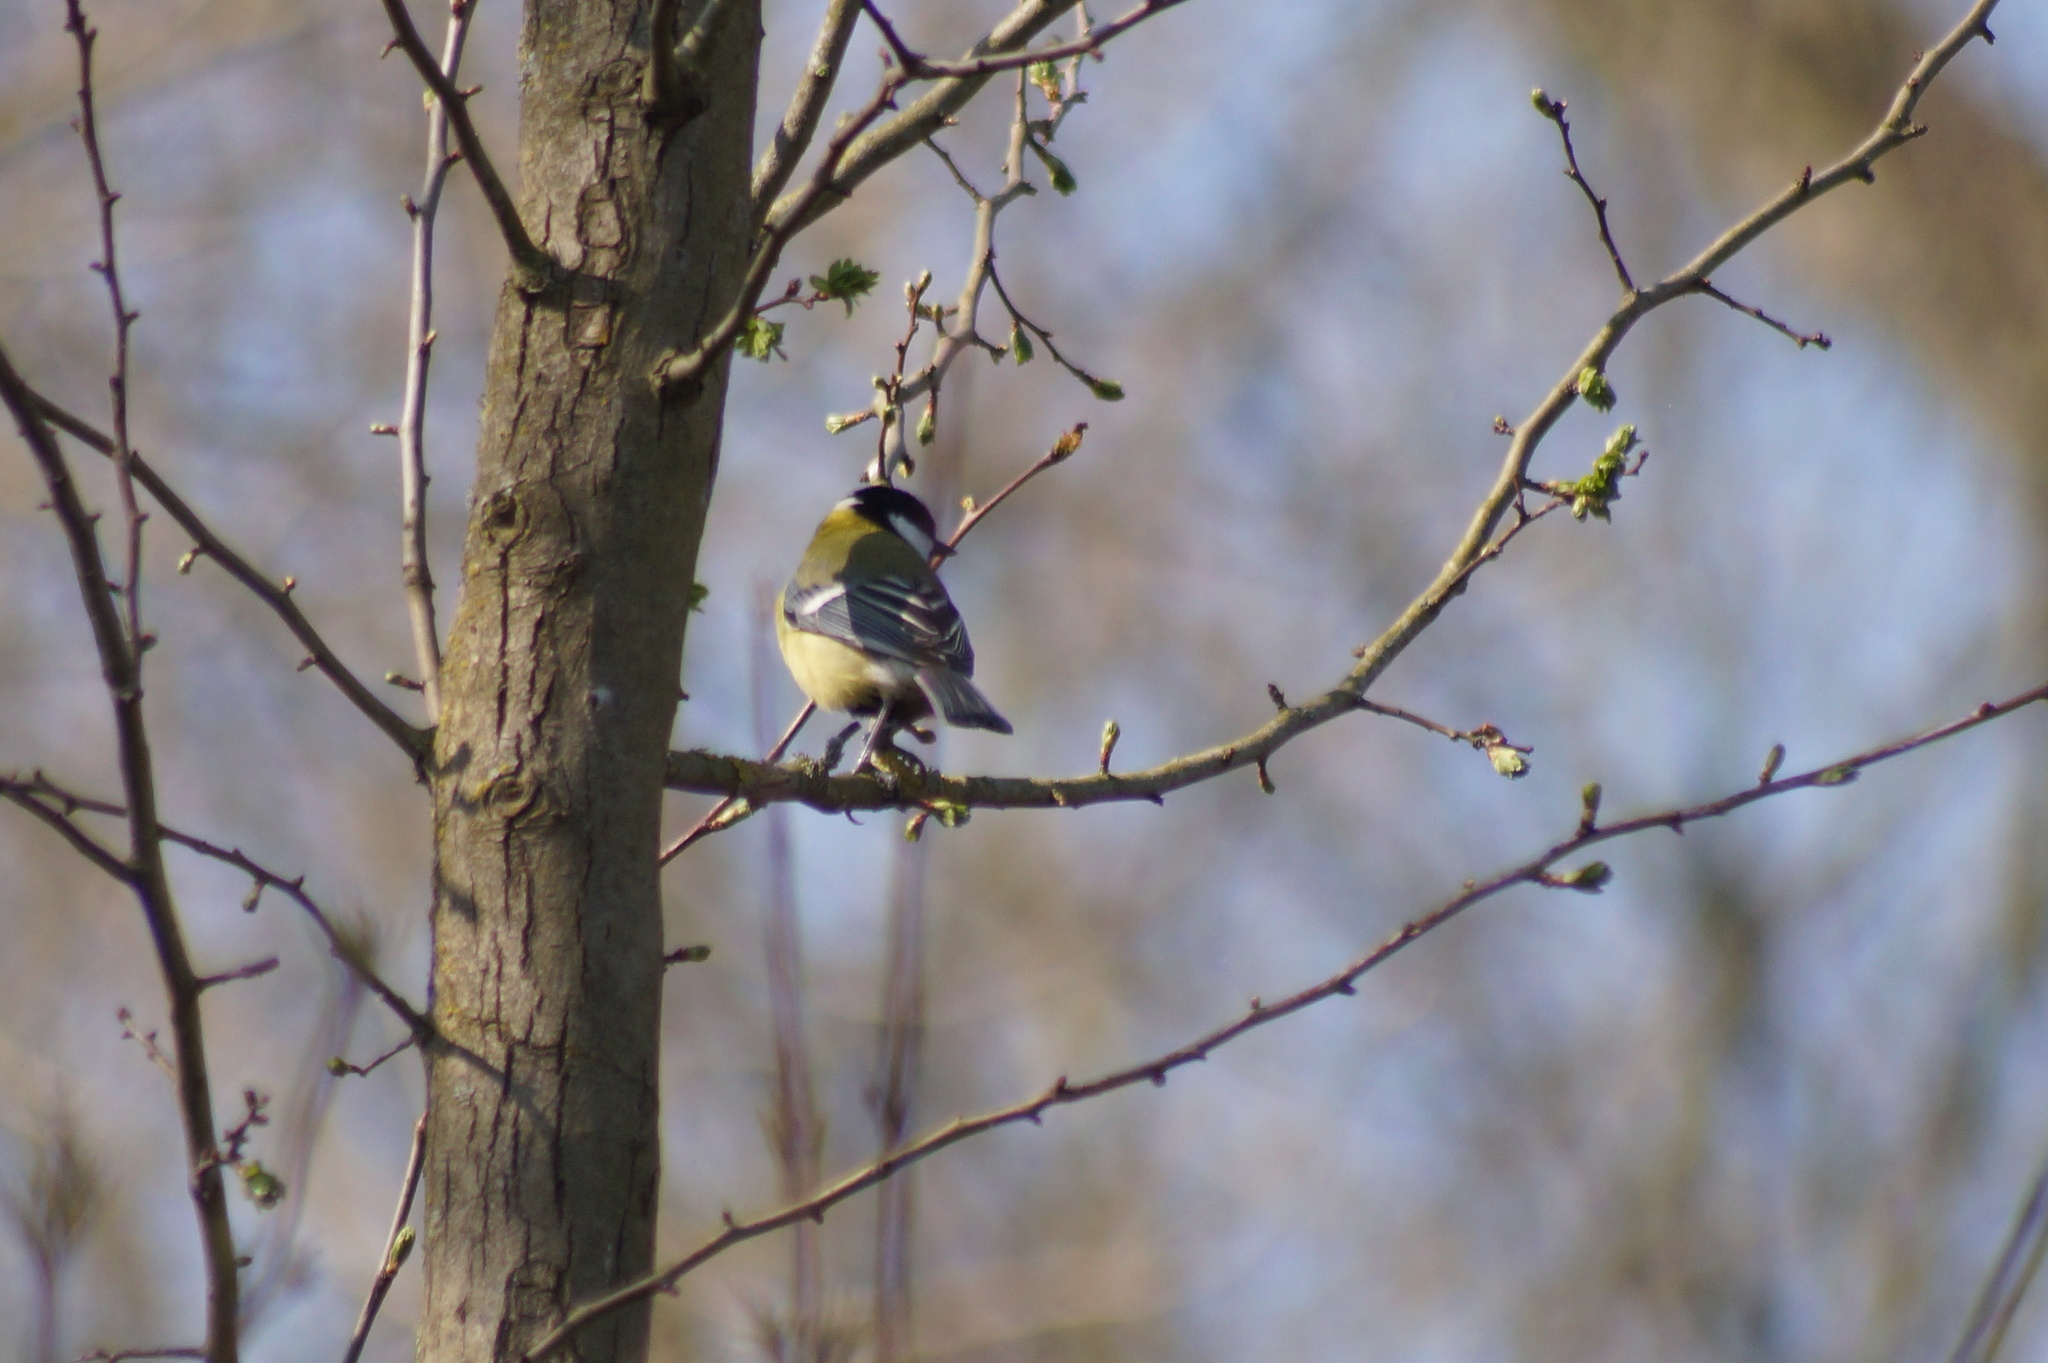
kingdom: Animalia
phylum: Chordata
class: Aves
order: Passeriformes
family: Paridae
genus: Parus
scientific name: Parus major
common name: Great tit
